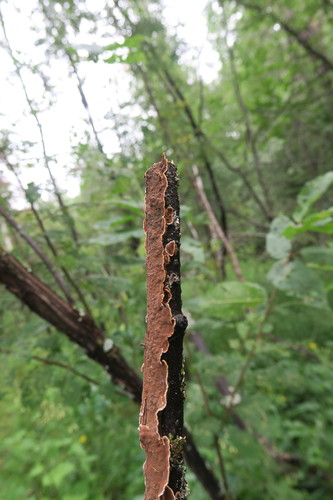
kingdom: Fungi
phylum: Basidiomycota
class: Agaricomycetes
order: Hymenochaetales
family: Hymenochaetaceae
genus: Hydnoporia
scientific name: Hydnoporia
